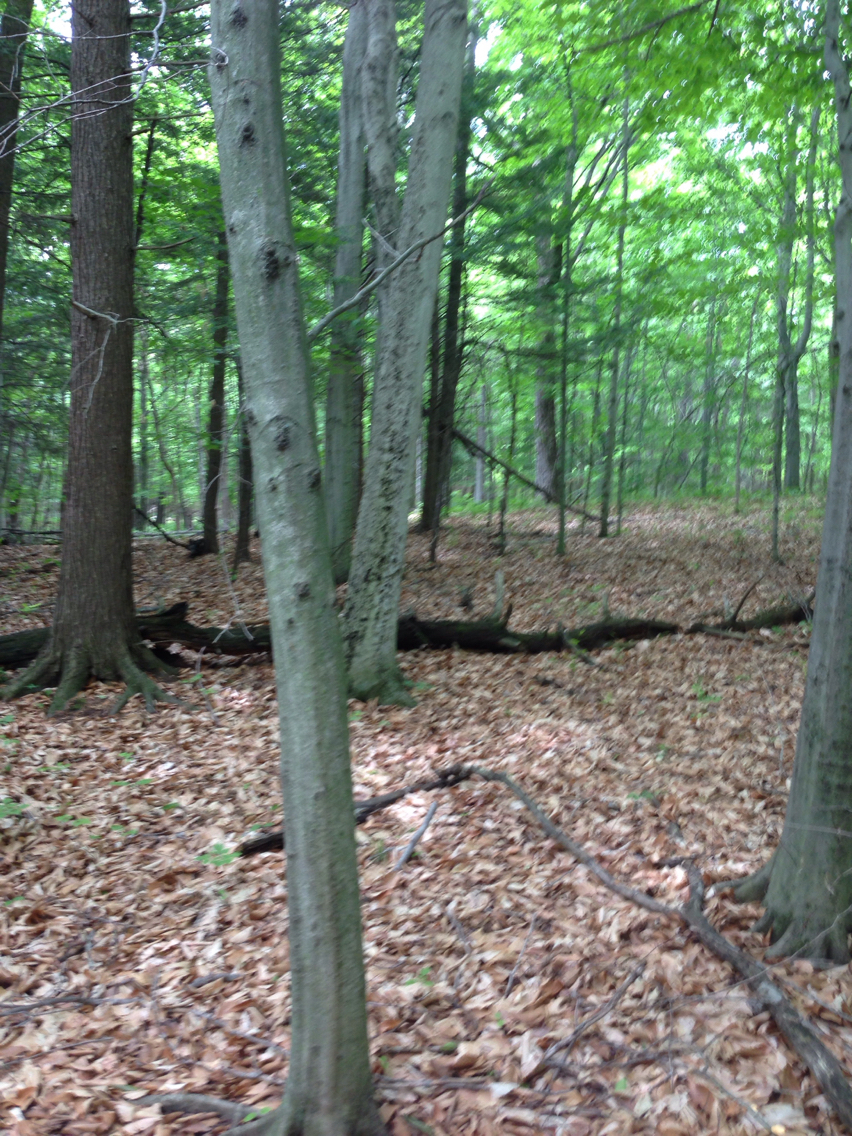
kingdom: Plantae
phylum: Tracheophyta
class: Magnoliopsida
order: Fagales
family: Fagaceae
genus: Fagus
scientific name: Fagus grandifolia
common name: American beech
